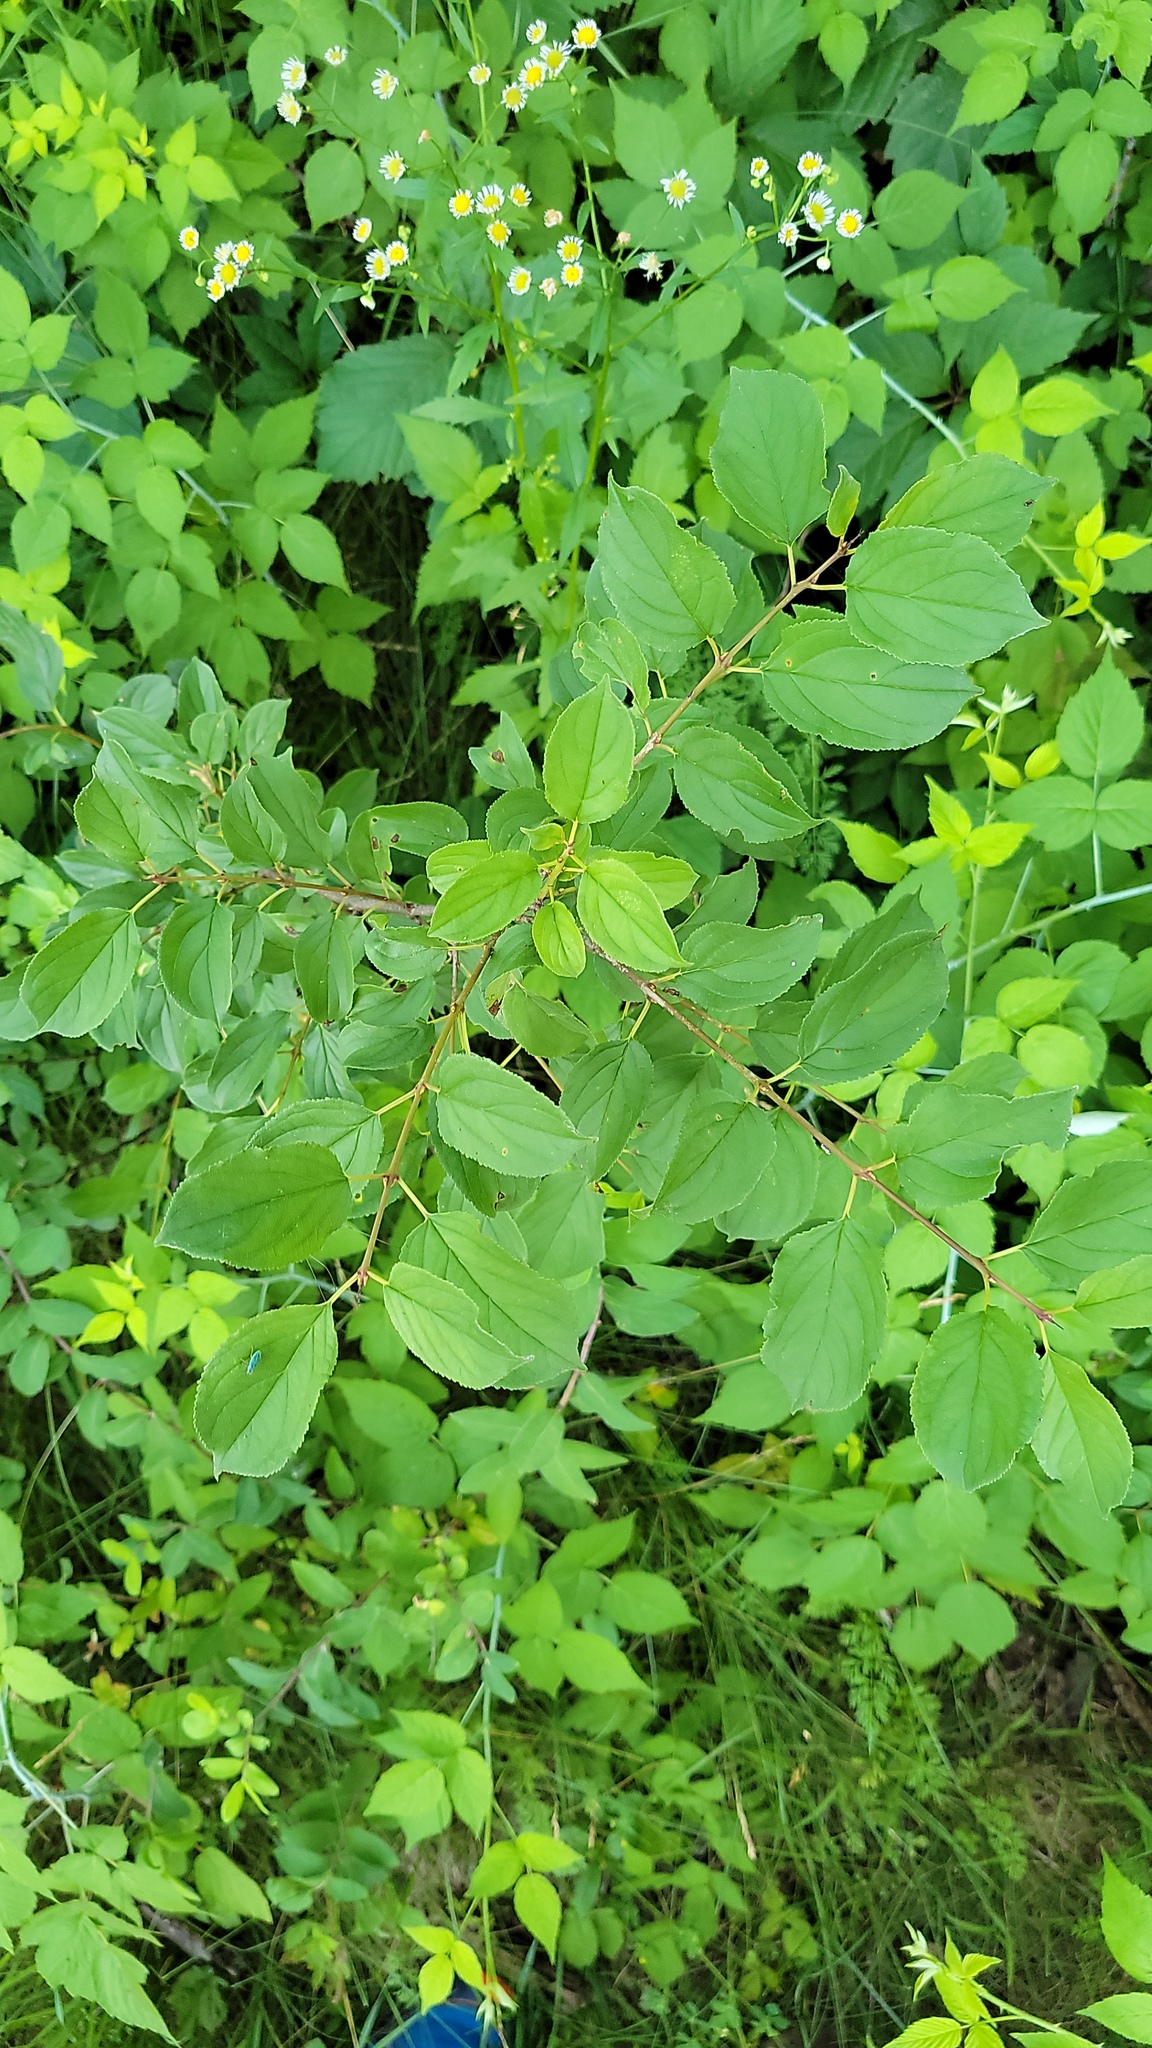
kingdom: Plantae
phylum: Tracheophyta
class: Magnoliopsida
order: Rosales
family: Rhamnaceae
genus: Rhamnus
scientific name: Rhamnus cathartica
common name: Common buckthorn
